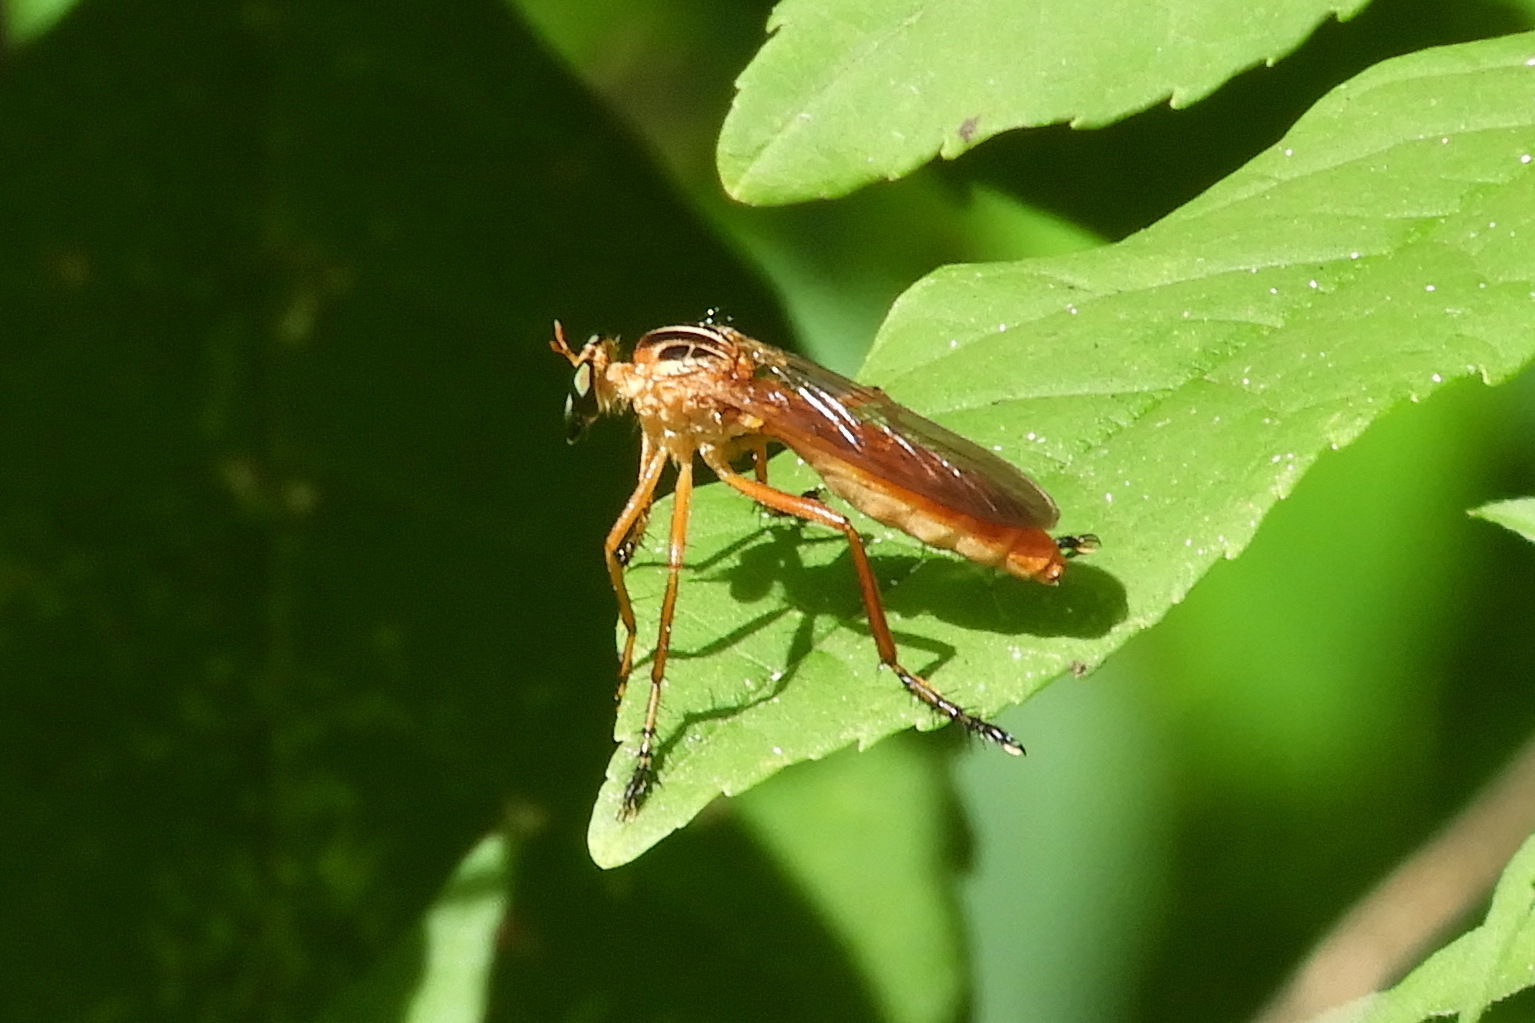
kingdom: Animalia
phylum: Arthropoda
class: Insecta
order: Diptera
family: Asilidae
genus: Diogmites
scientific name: Diogmites neoternatus
